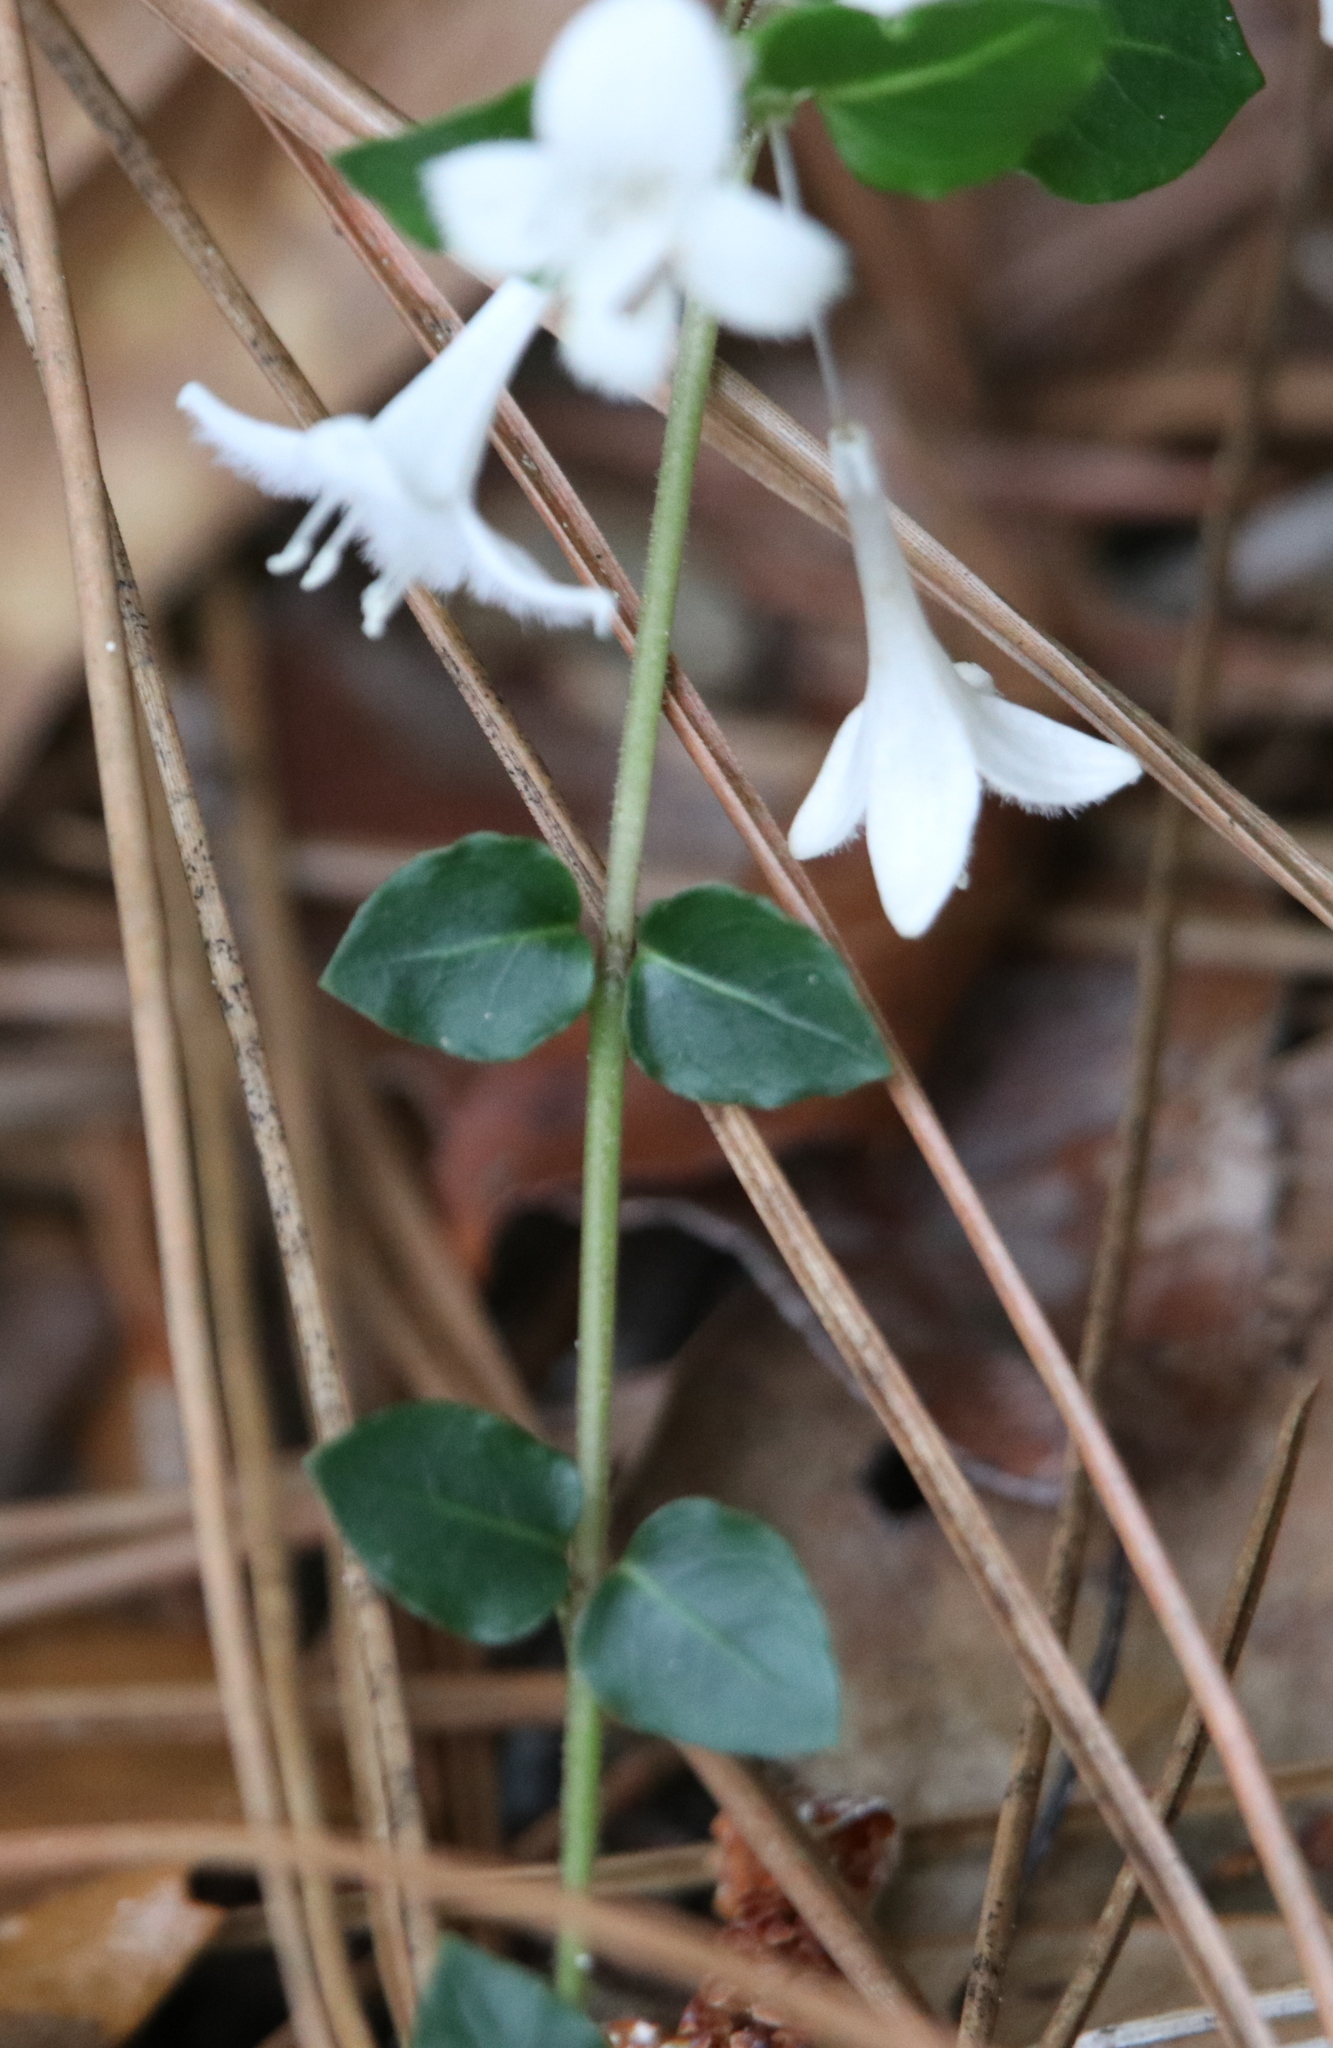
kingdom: Plantae
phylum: Tracheophyta
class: Magnoliopsida
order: Gentianales
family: Rubiaceae
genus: Mitchella
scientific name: Mitchella repens
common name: Partridge-berry
